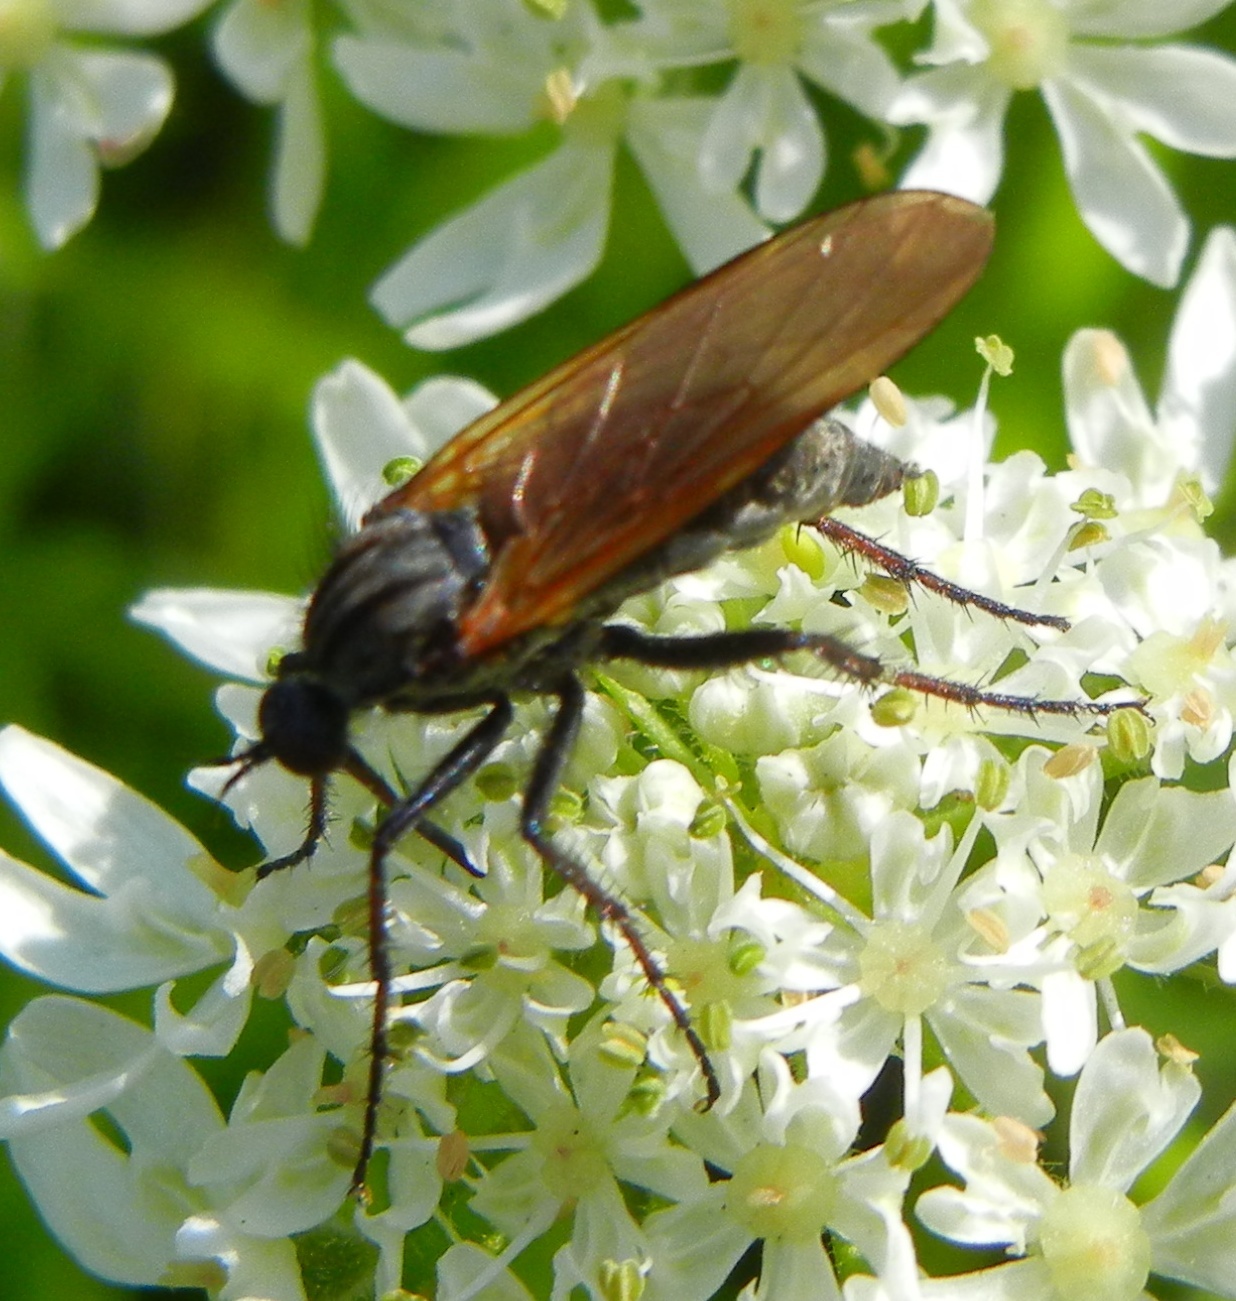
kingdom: Animalia
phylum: Arthropoda
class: Insecta
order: Diptera
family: Empididae
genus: Empis
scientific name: Empis tessellata
